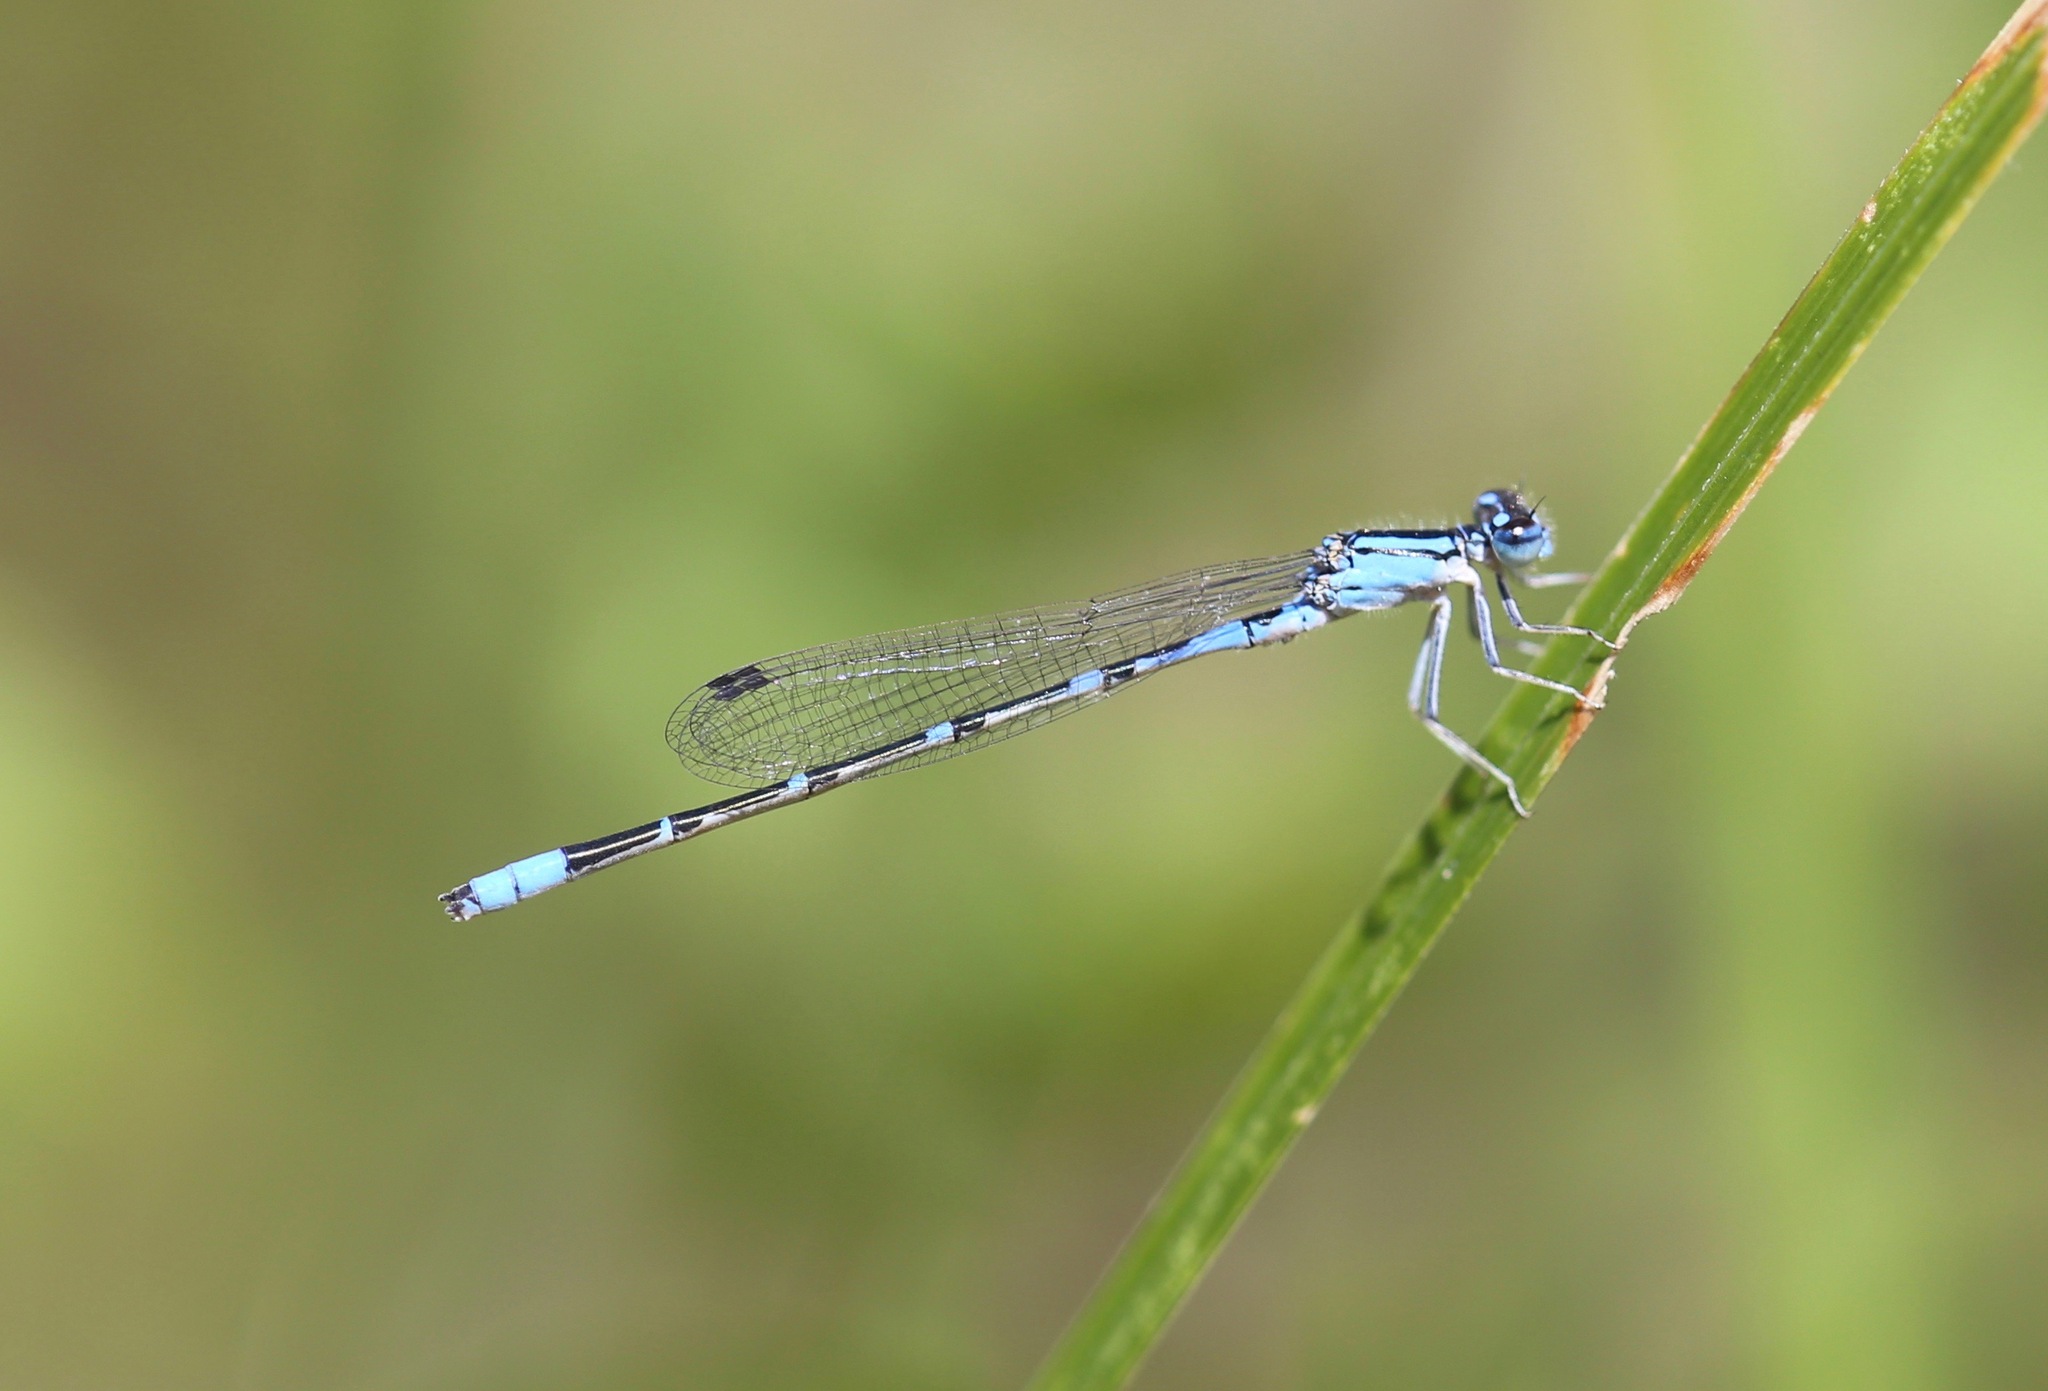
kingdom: Animalia
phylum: Arthropoda
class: Insecta
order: Odonata
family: Coenagrionidae
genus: Enallagma
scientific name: Enallagma praevarum
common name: Arroyo bluet
